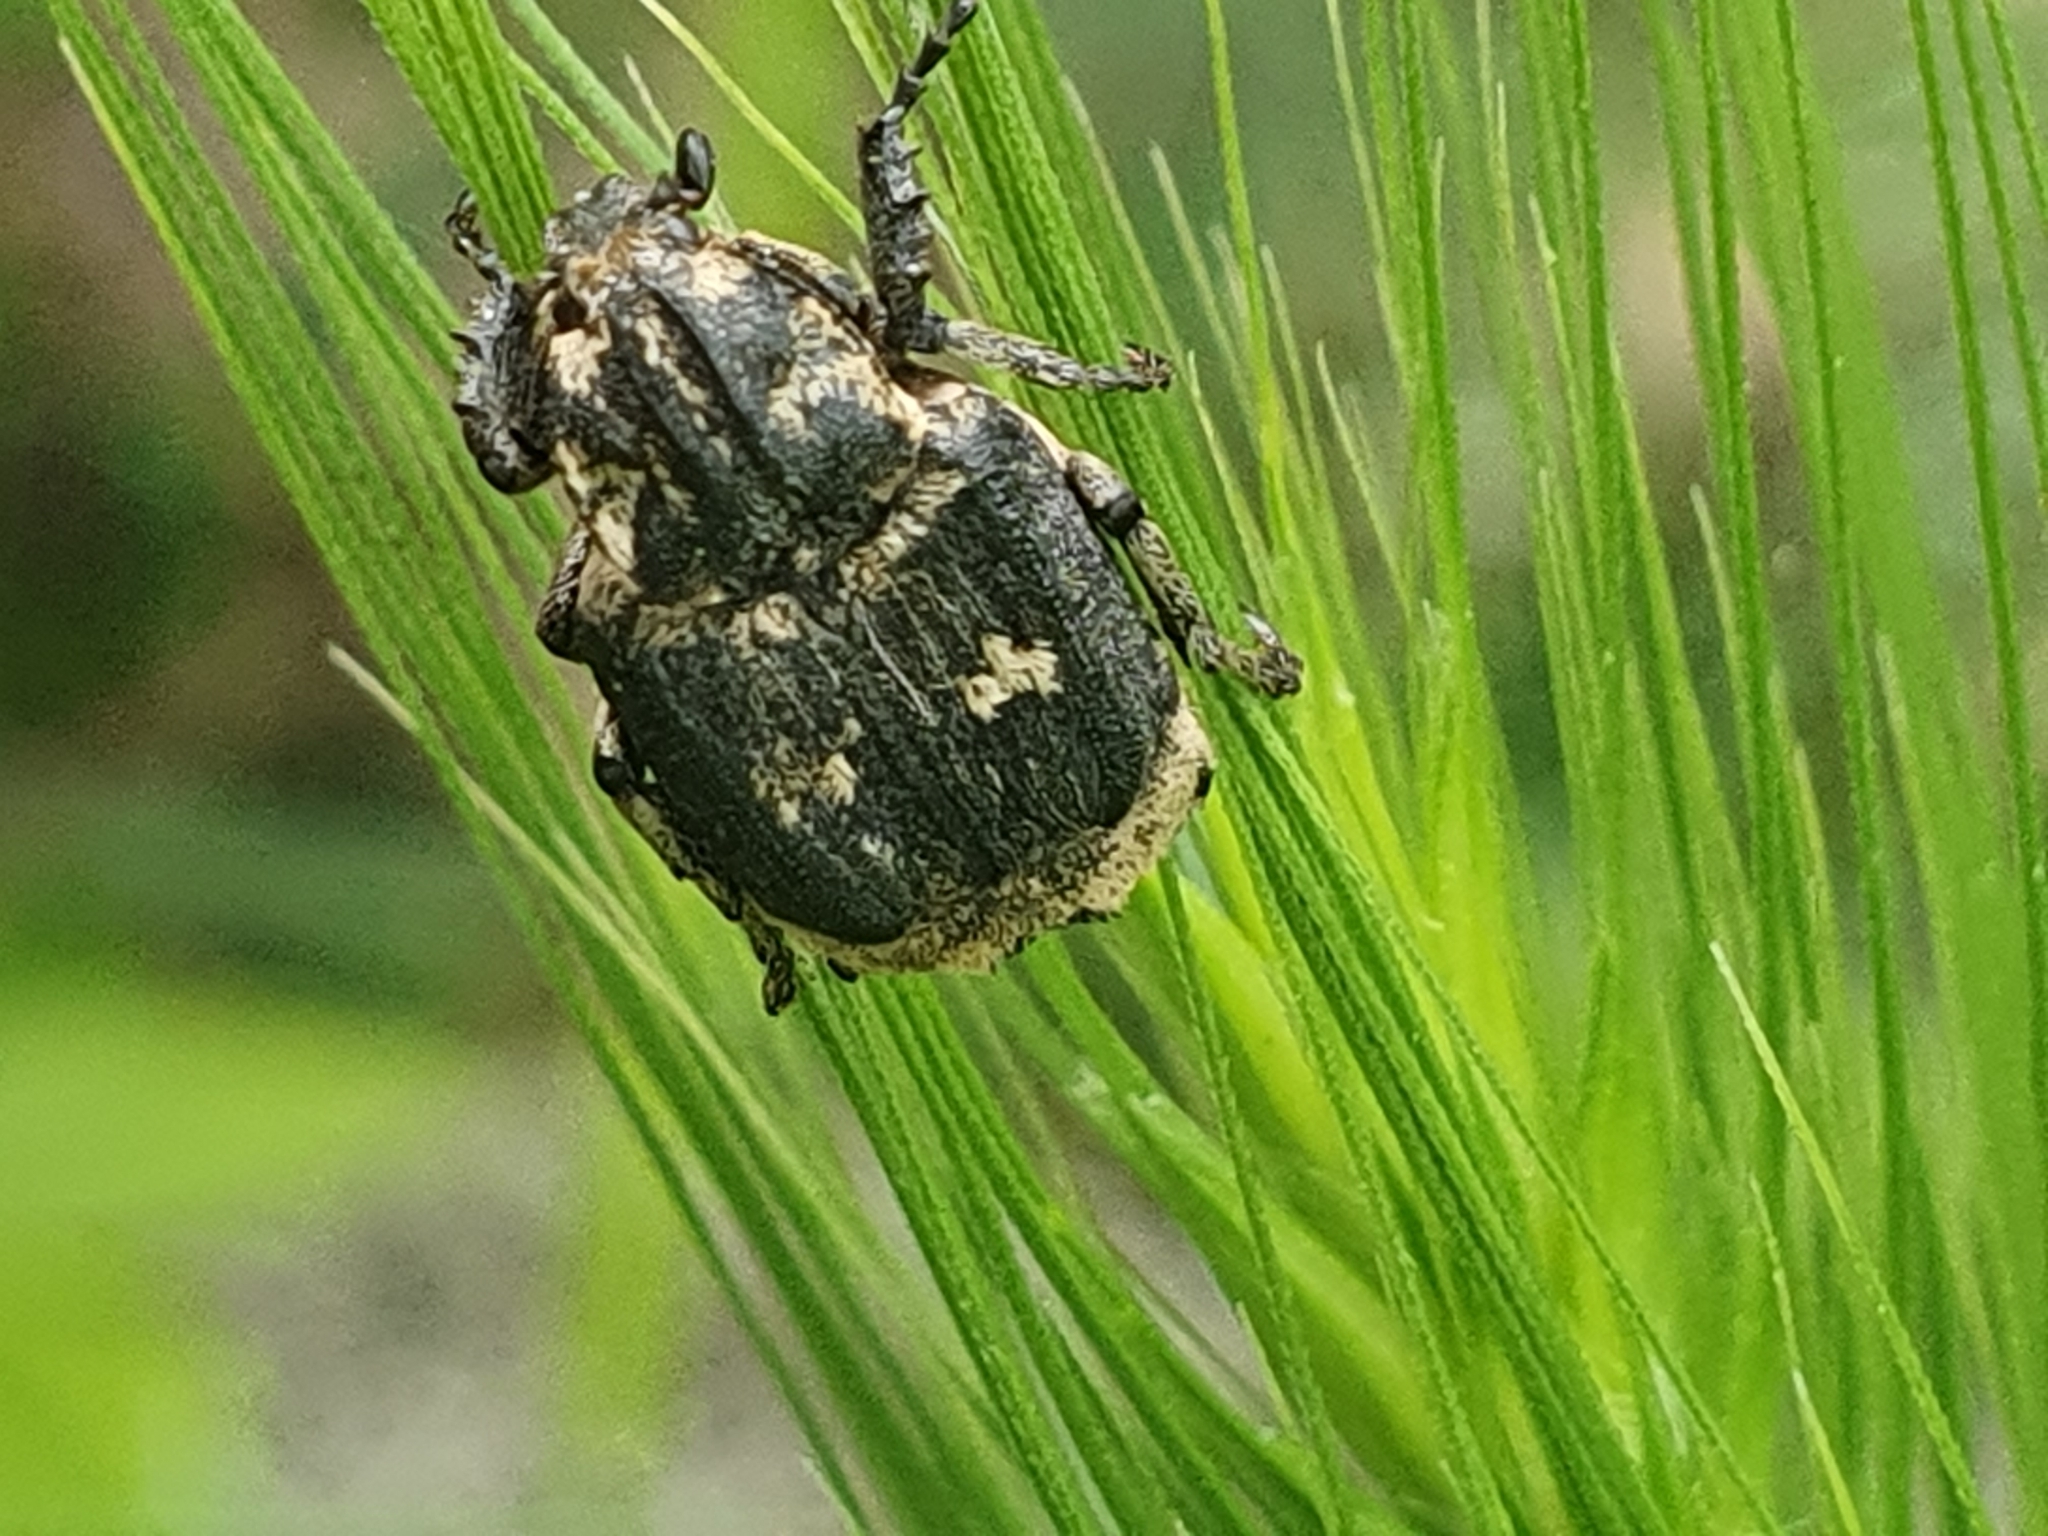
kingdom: Animalia
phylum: Arthropoda
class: Insecta
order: Coleoptera
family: Scarabaeidae
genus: Valgus
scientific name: Valgus hemipterus
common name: Bug flower chafer
